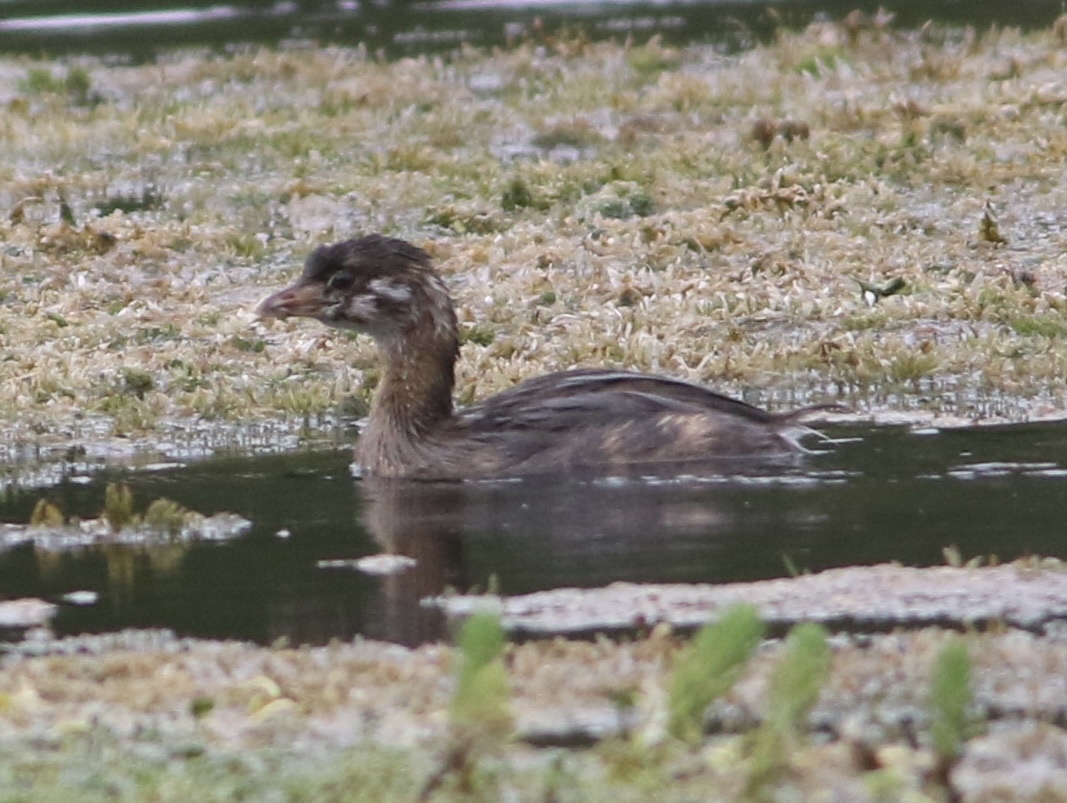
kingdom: Animalia
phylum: Chordata
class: Aves
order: Podicipediformes
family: Podicipedidae
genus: Podilymbus
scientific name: Podilymbus podiceps
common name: Pied-billed grebe
